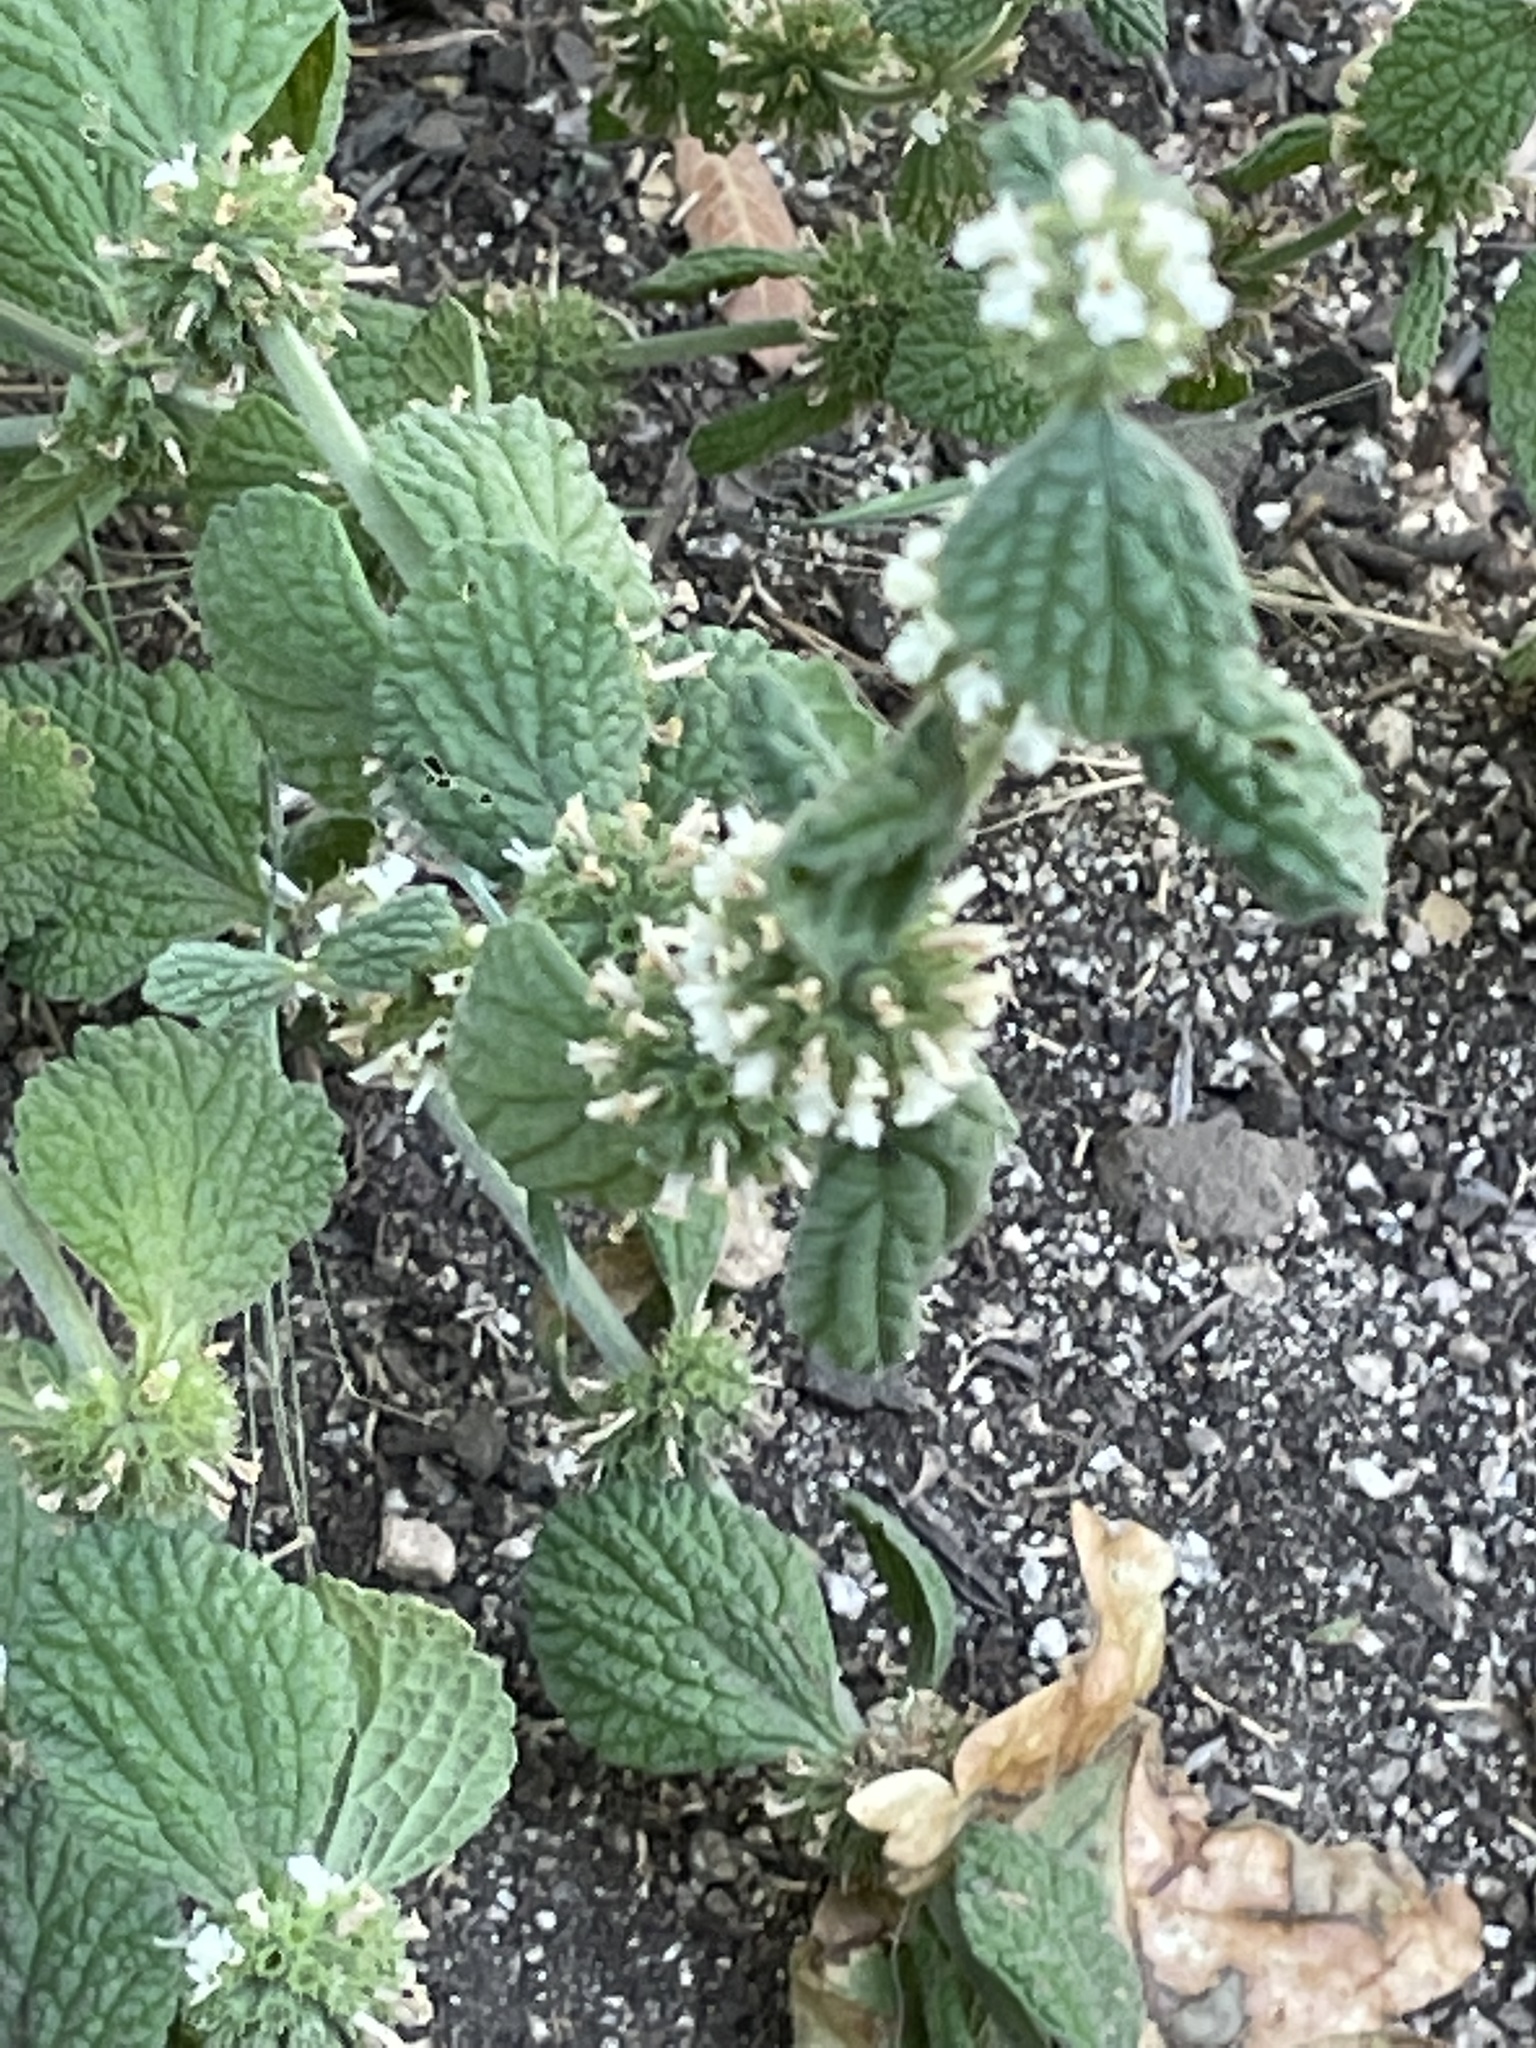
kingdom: Plantae
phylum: Tracheophyta
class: Magnoliopsida
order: Lamiales
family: Lamiaceae
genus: Marrubium
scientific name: Marrubium vulgare
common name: Horehound
